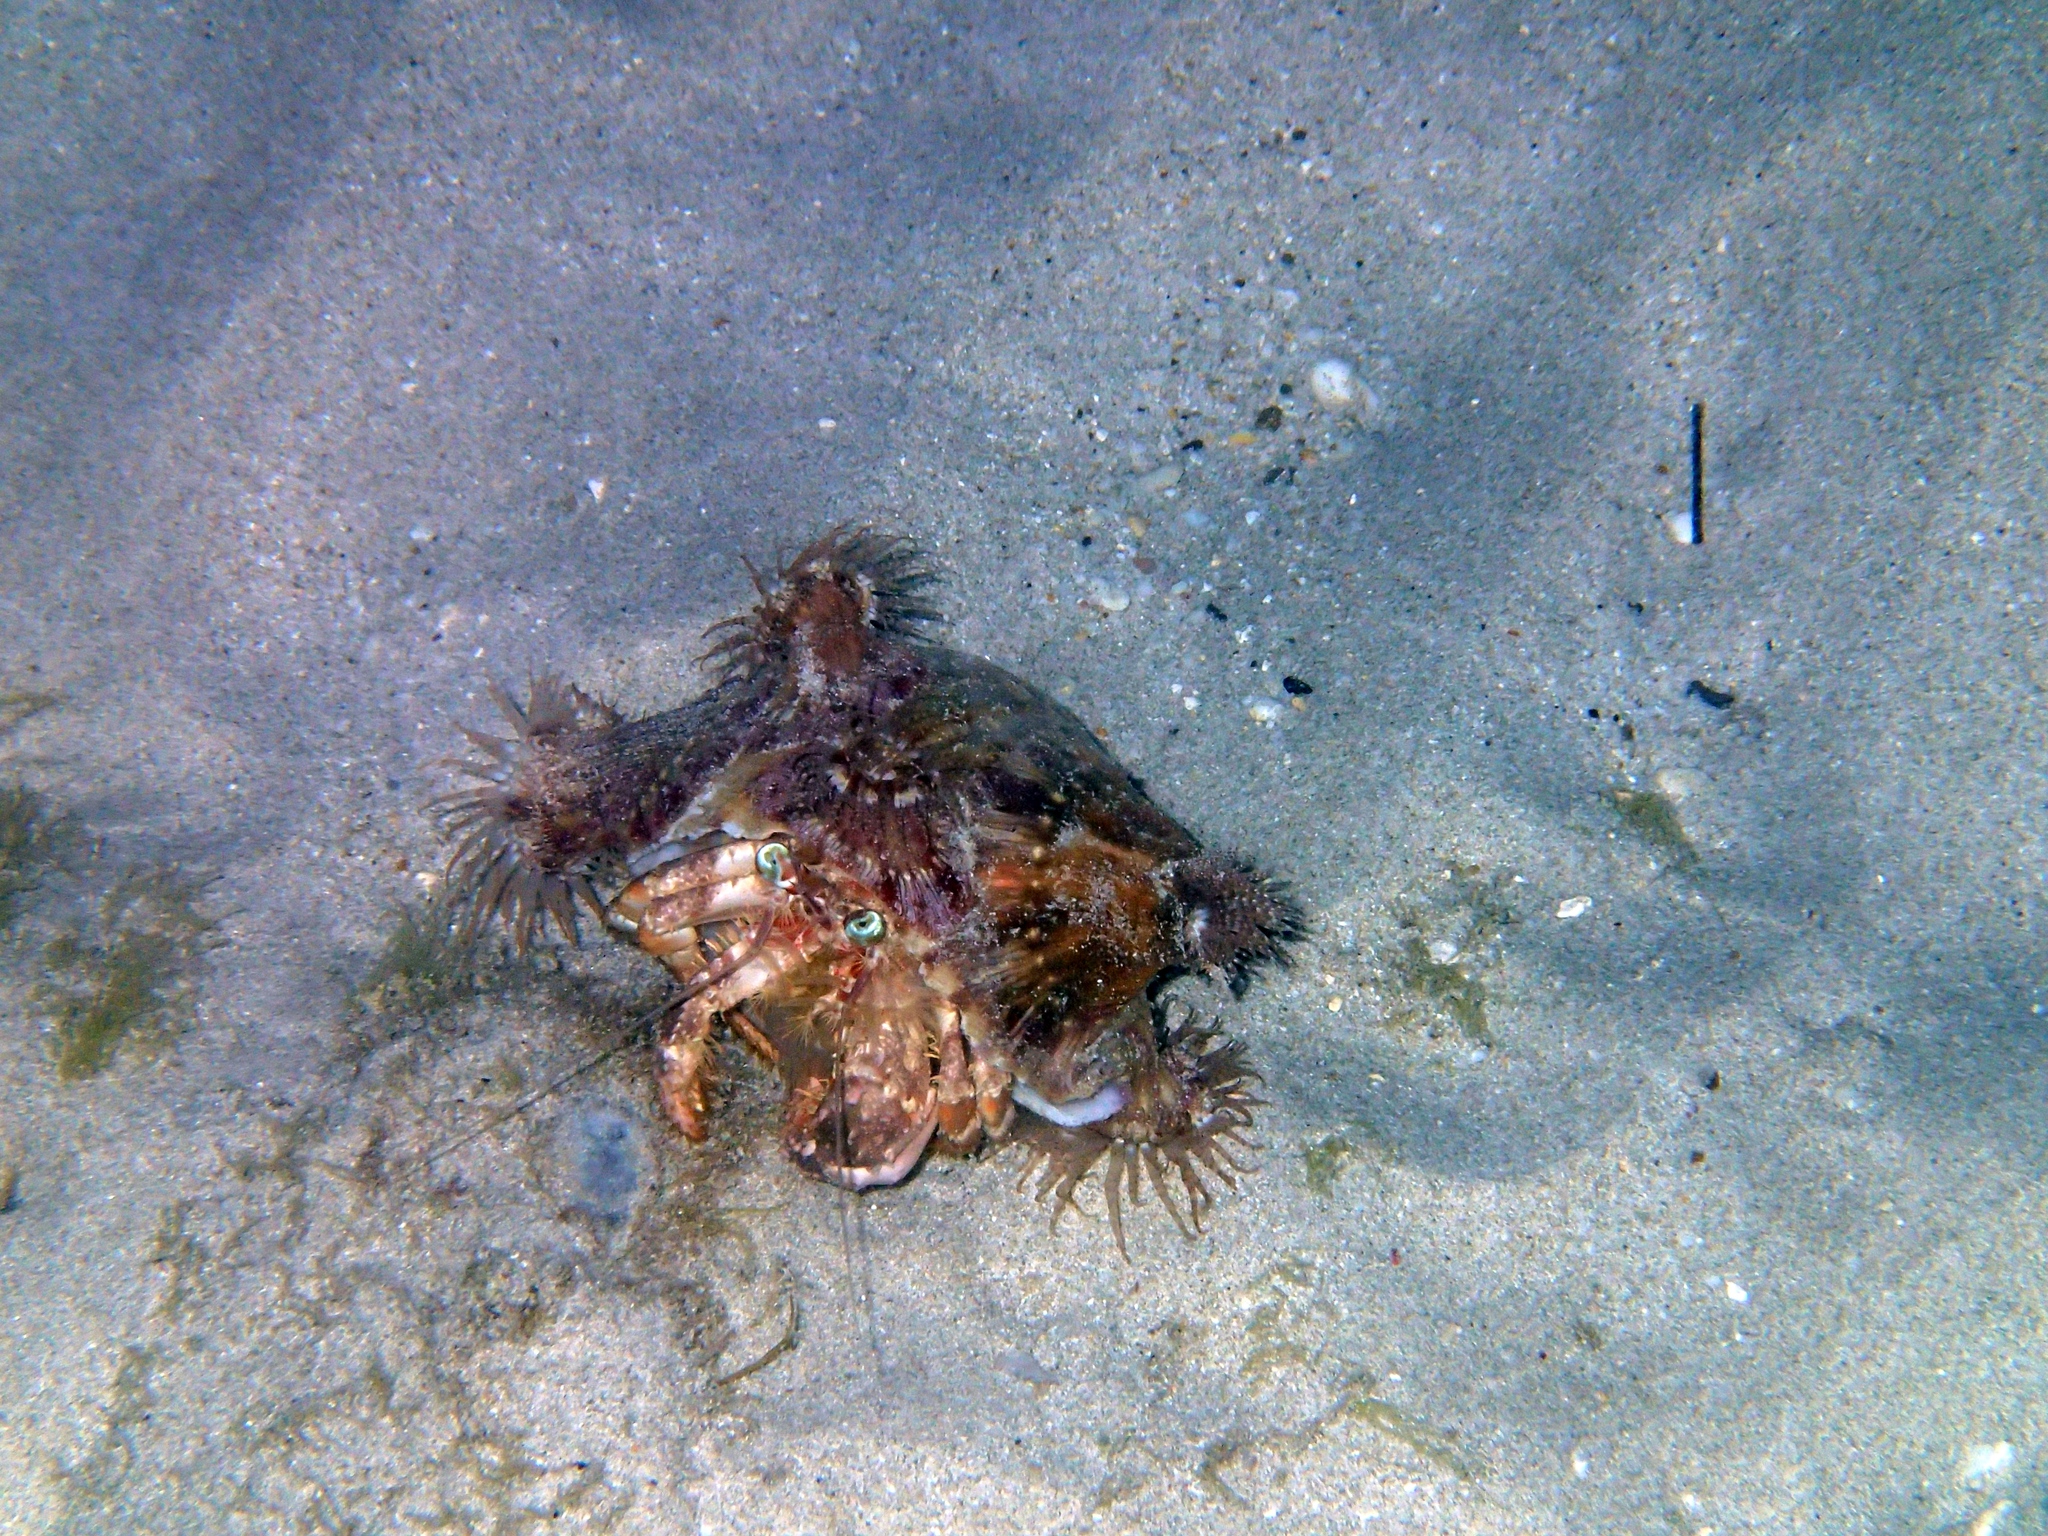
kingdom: Animalia
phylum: Arthropoda
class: Malacostraca
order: Decapoda
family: Diogenidae
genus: Dardanus
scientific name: Dardanus pedunculatus
